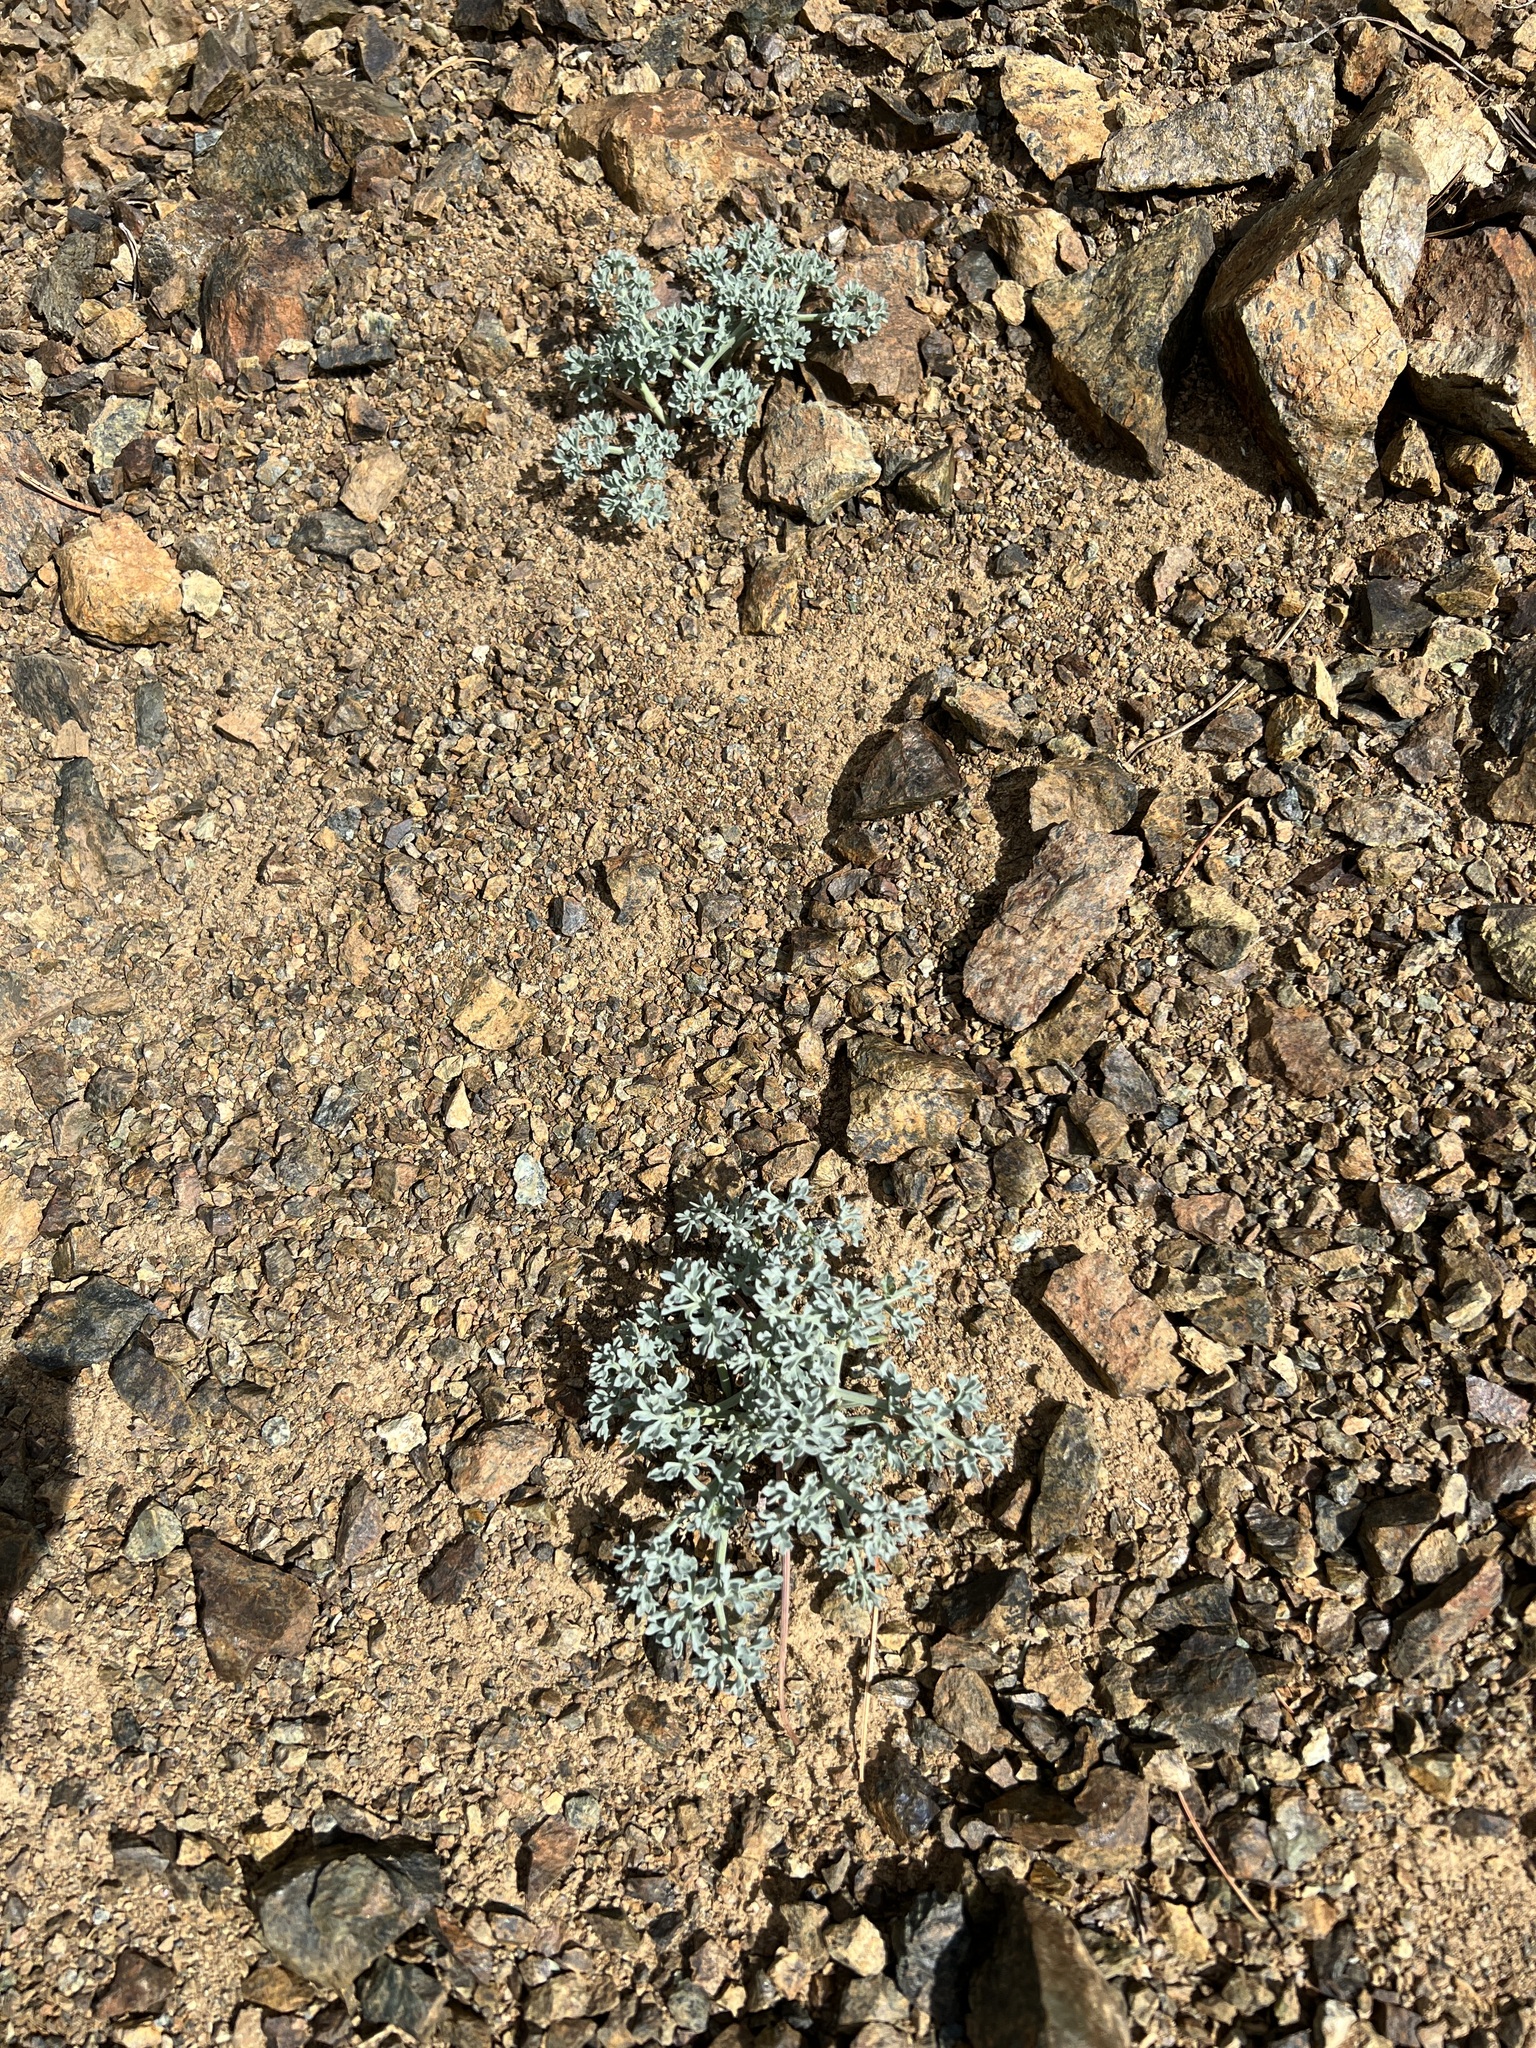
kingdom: Plantae
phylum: Tracheophyta
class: Magnoliopsida
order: Apiales
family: Apiaceae
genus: Lomatium
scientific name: Lomatium cuspidatum
